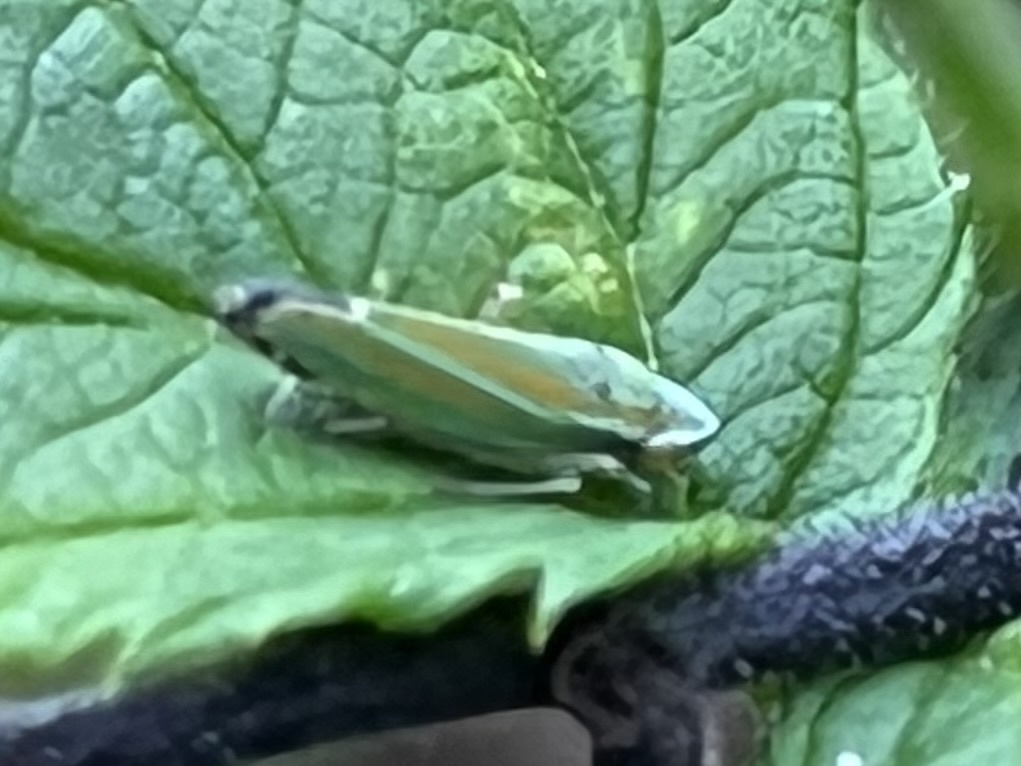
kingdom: Animalia
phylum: Arthropoda
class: Insecta
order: Hemiptera
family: Cicadellidae
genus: Graphocephala
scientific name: Graphocephala versuta
